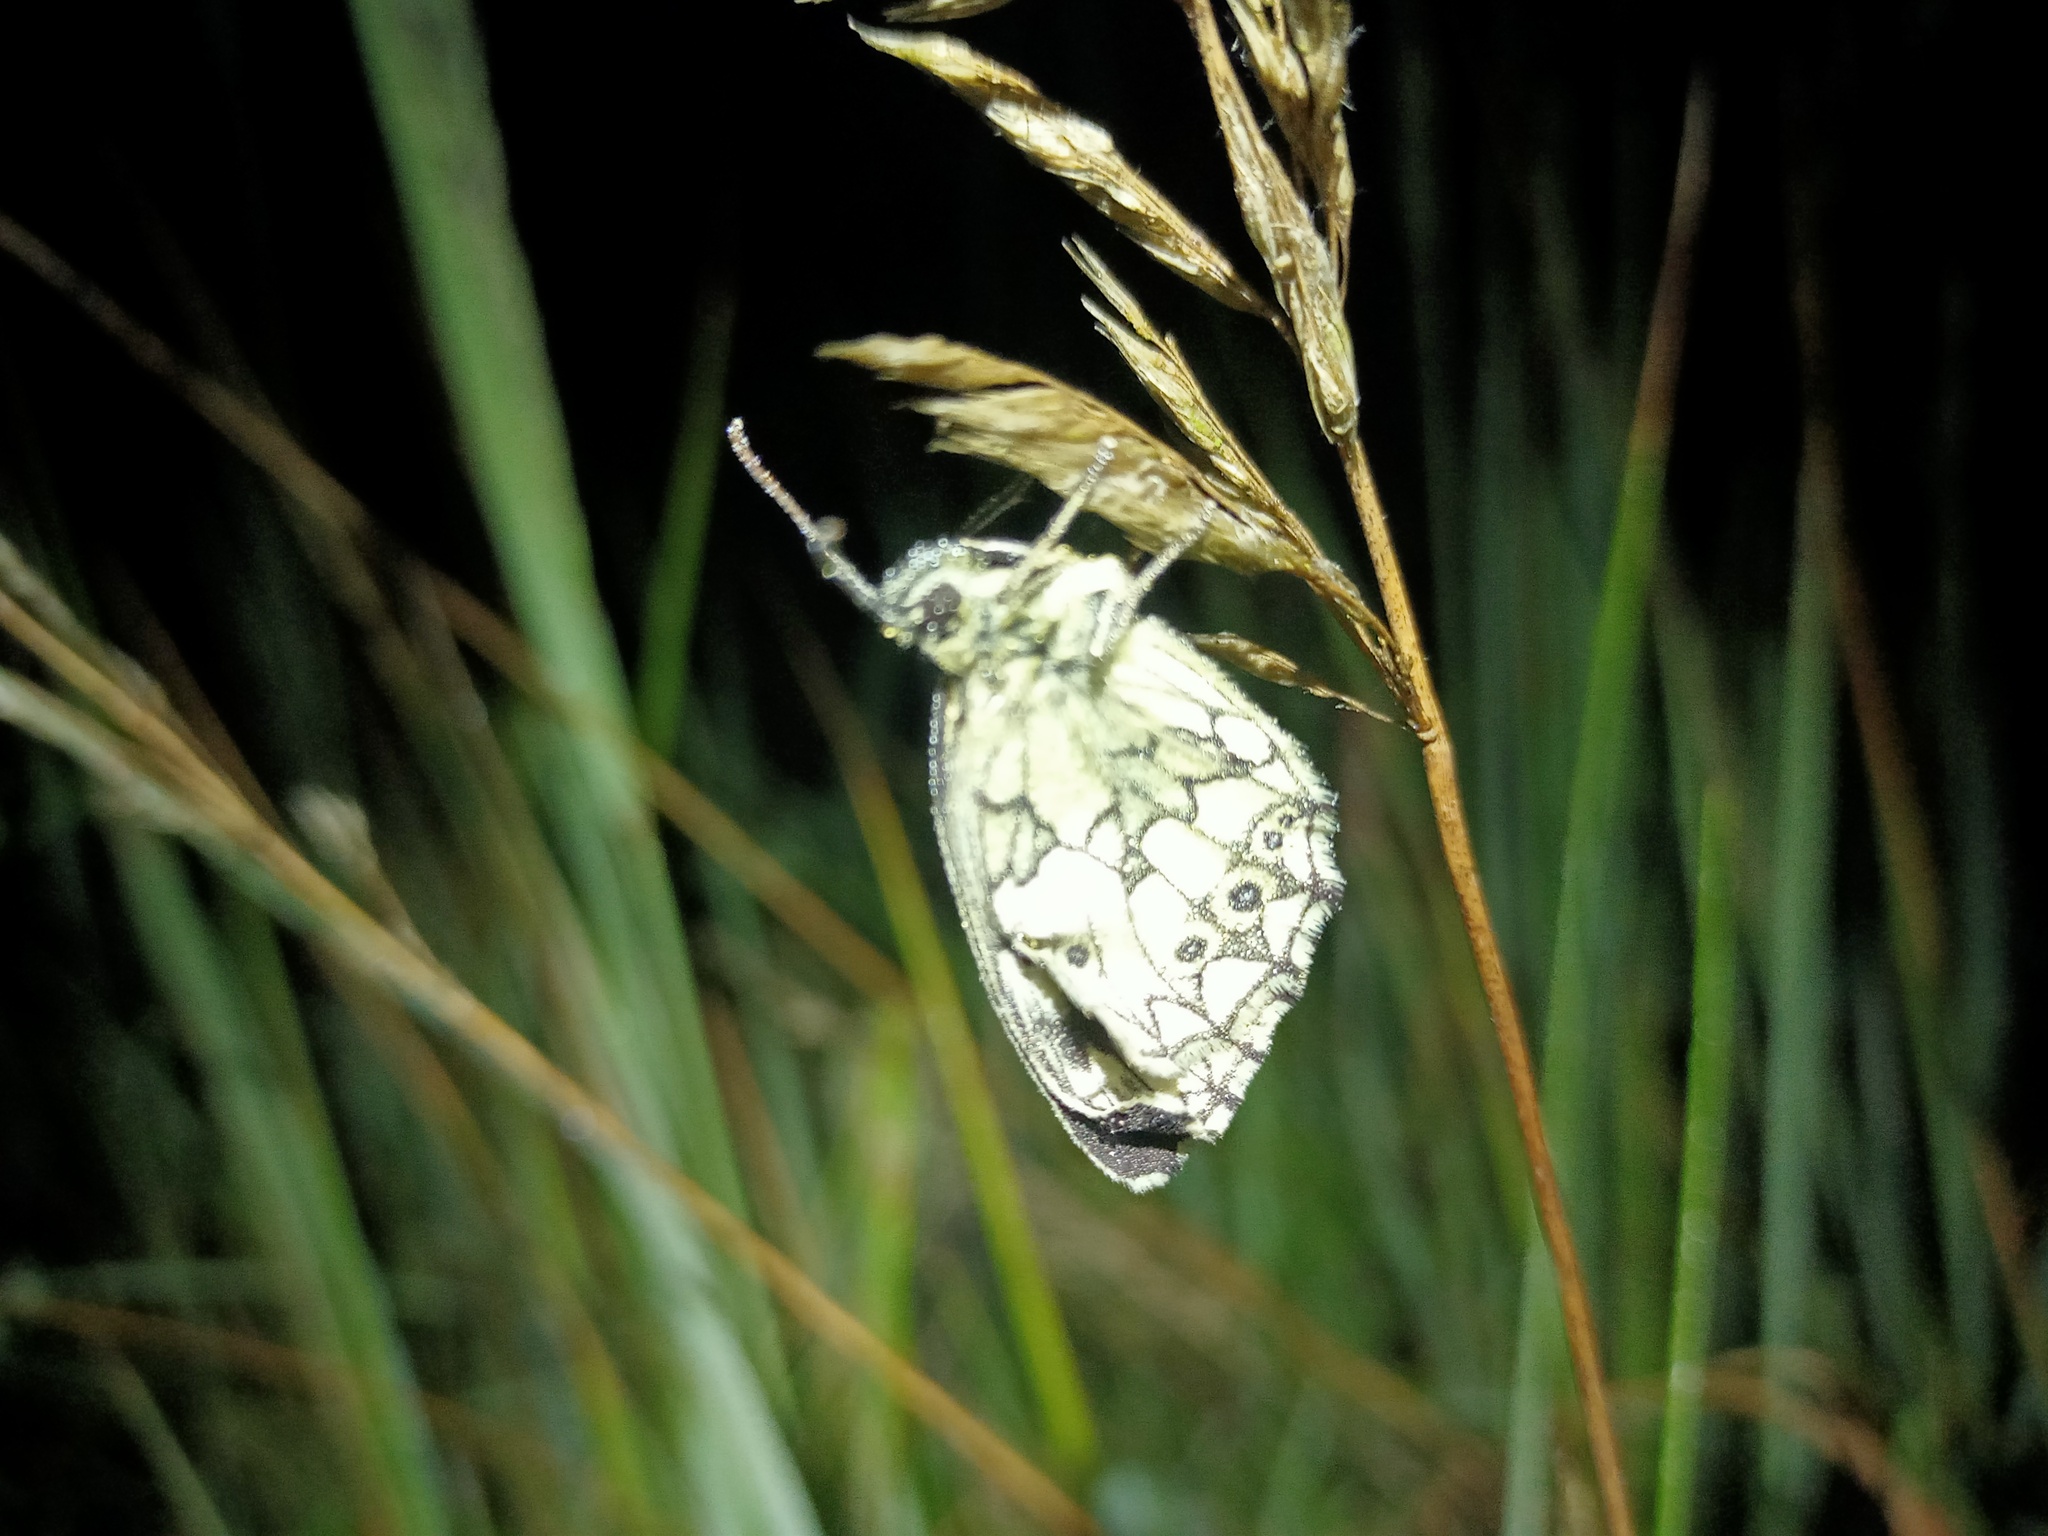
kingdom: Animalia
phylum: Arthropoda
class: Insecta
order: Lepidoptera
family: Nymphalidae
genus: Melanargia
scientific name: Melanargia galathea
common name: Marbled white
